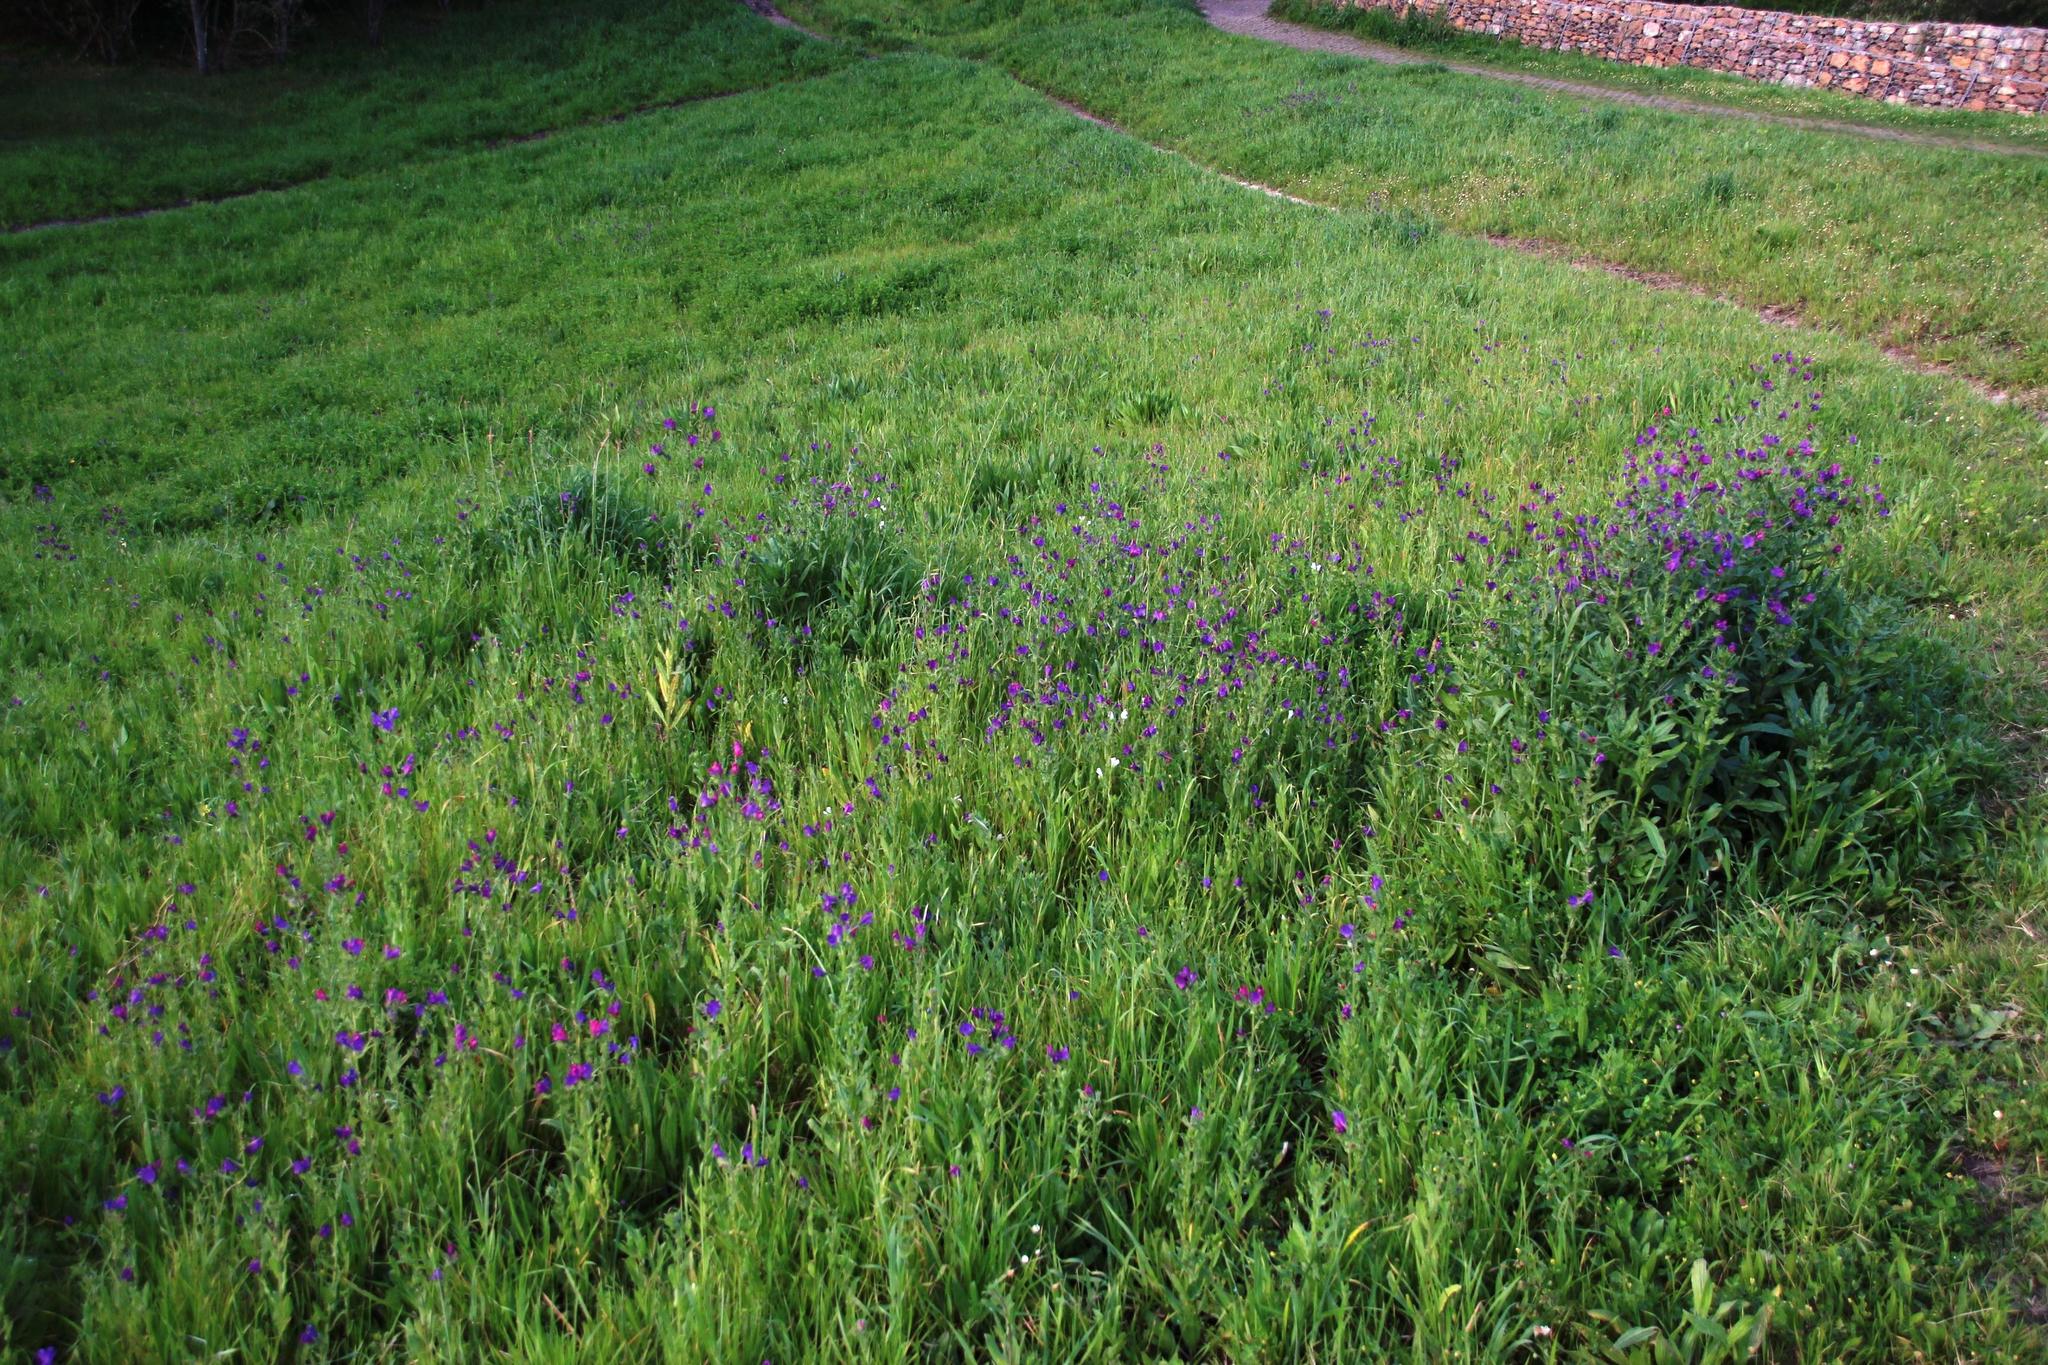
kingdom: Plantae
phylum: Tracheophyta
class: Magnoliopsida
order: Boraginales
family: Boraginaceae
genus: Echium
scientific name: Echium plantagineum
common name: Purple viper's-bugloss
